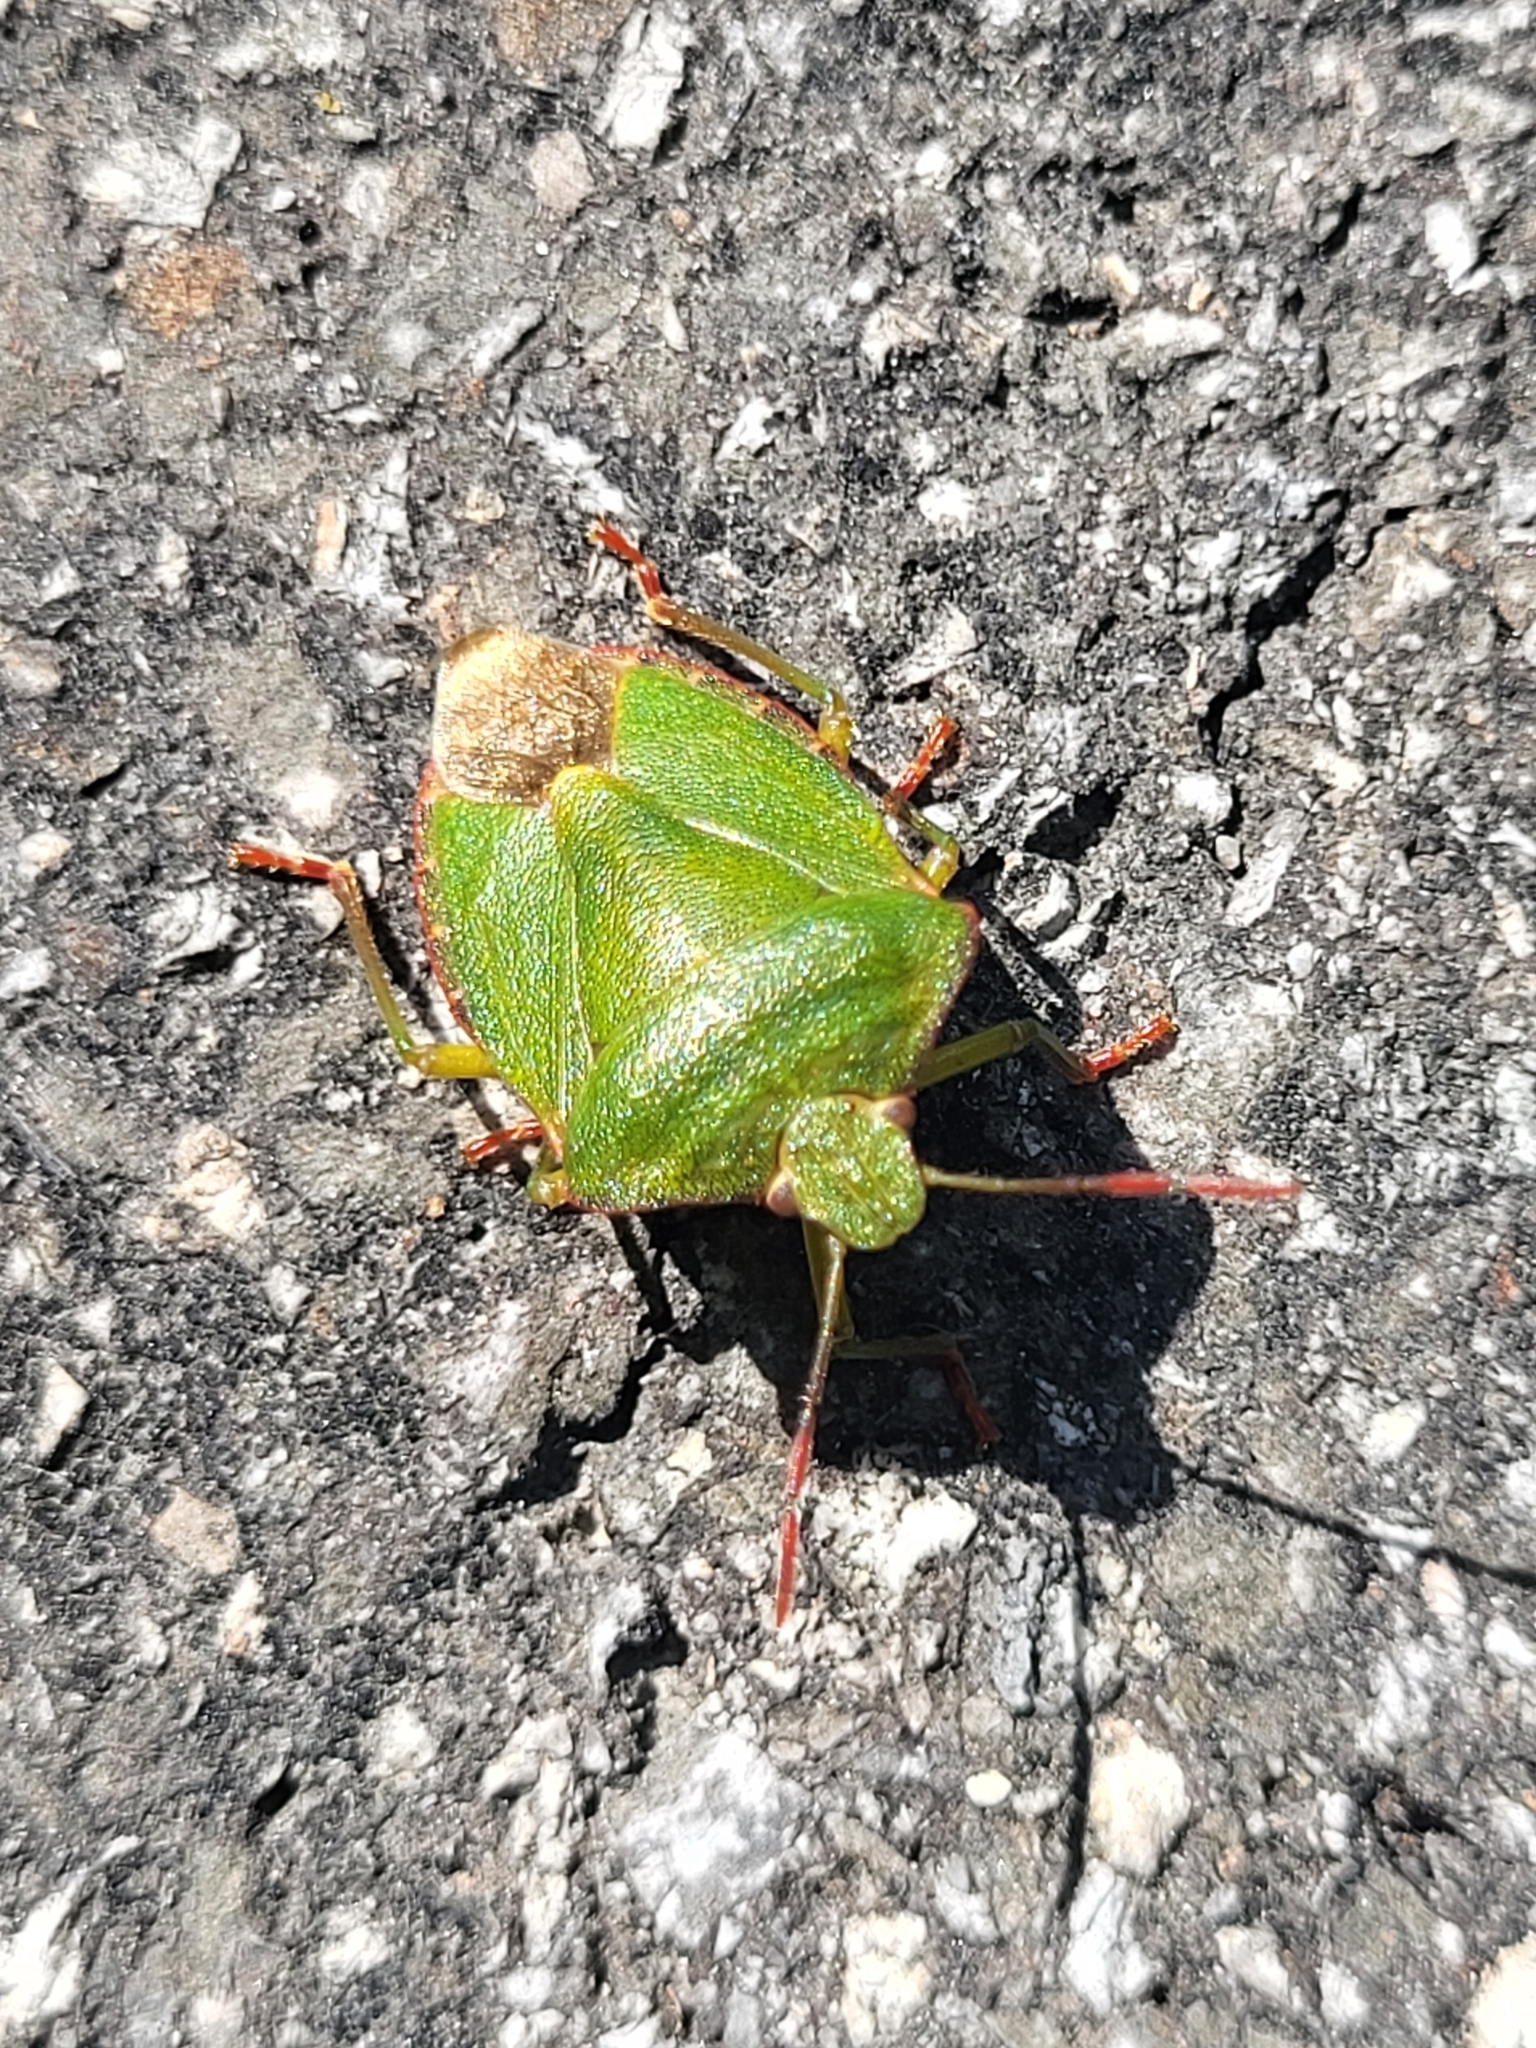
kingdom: Animalia
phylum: Arthropoda
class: Insecta
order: Hemiptera
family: Pentatomidae
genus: Palomena
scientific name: Palomena prasina
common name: Green shieldbug
